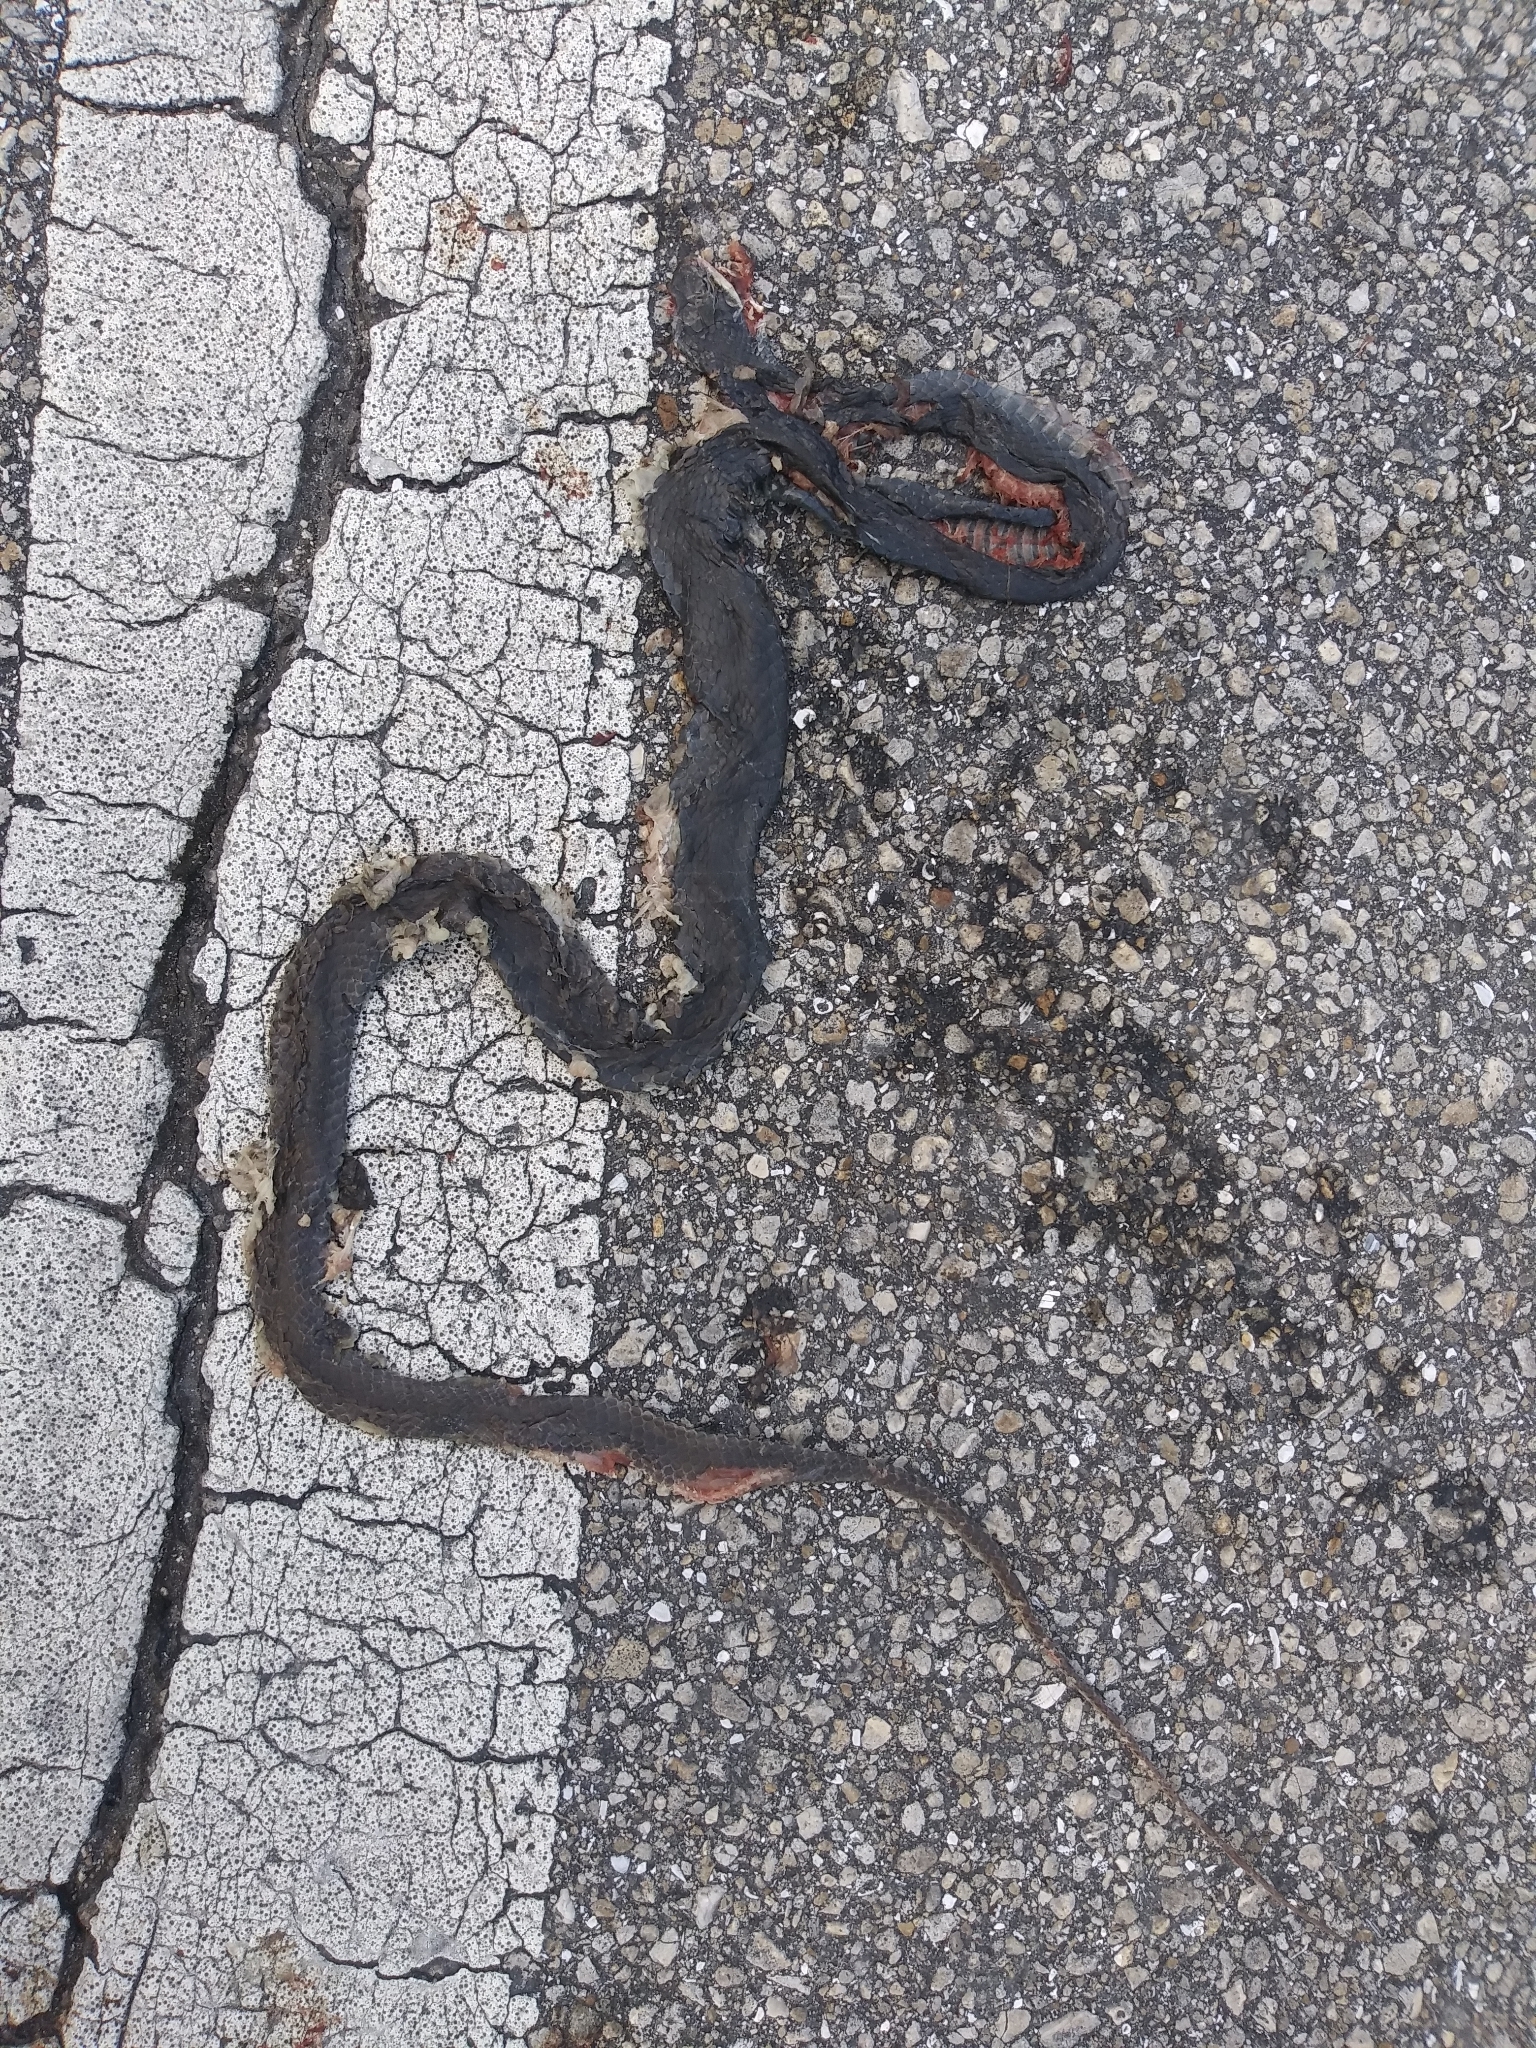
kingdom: Animalia
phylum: Chordata
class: Squamata
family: Colubridae
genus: Coluber
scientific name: Coluber constrictor
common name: Eastern racer
